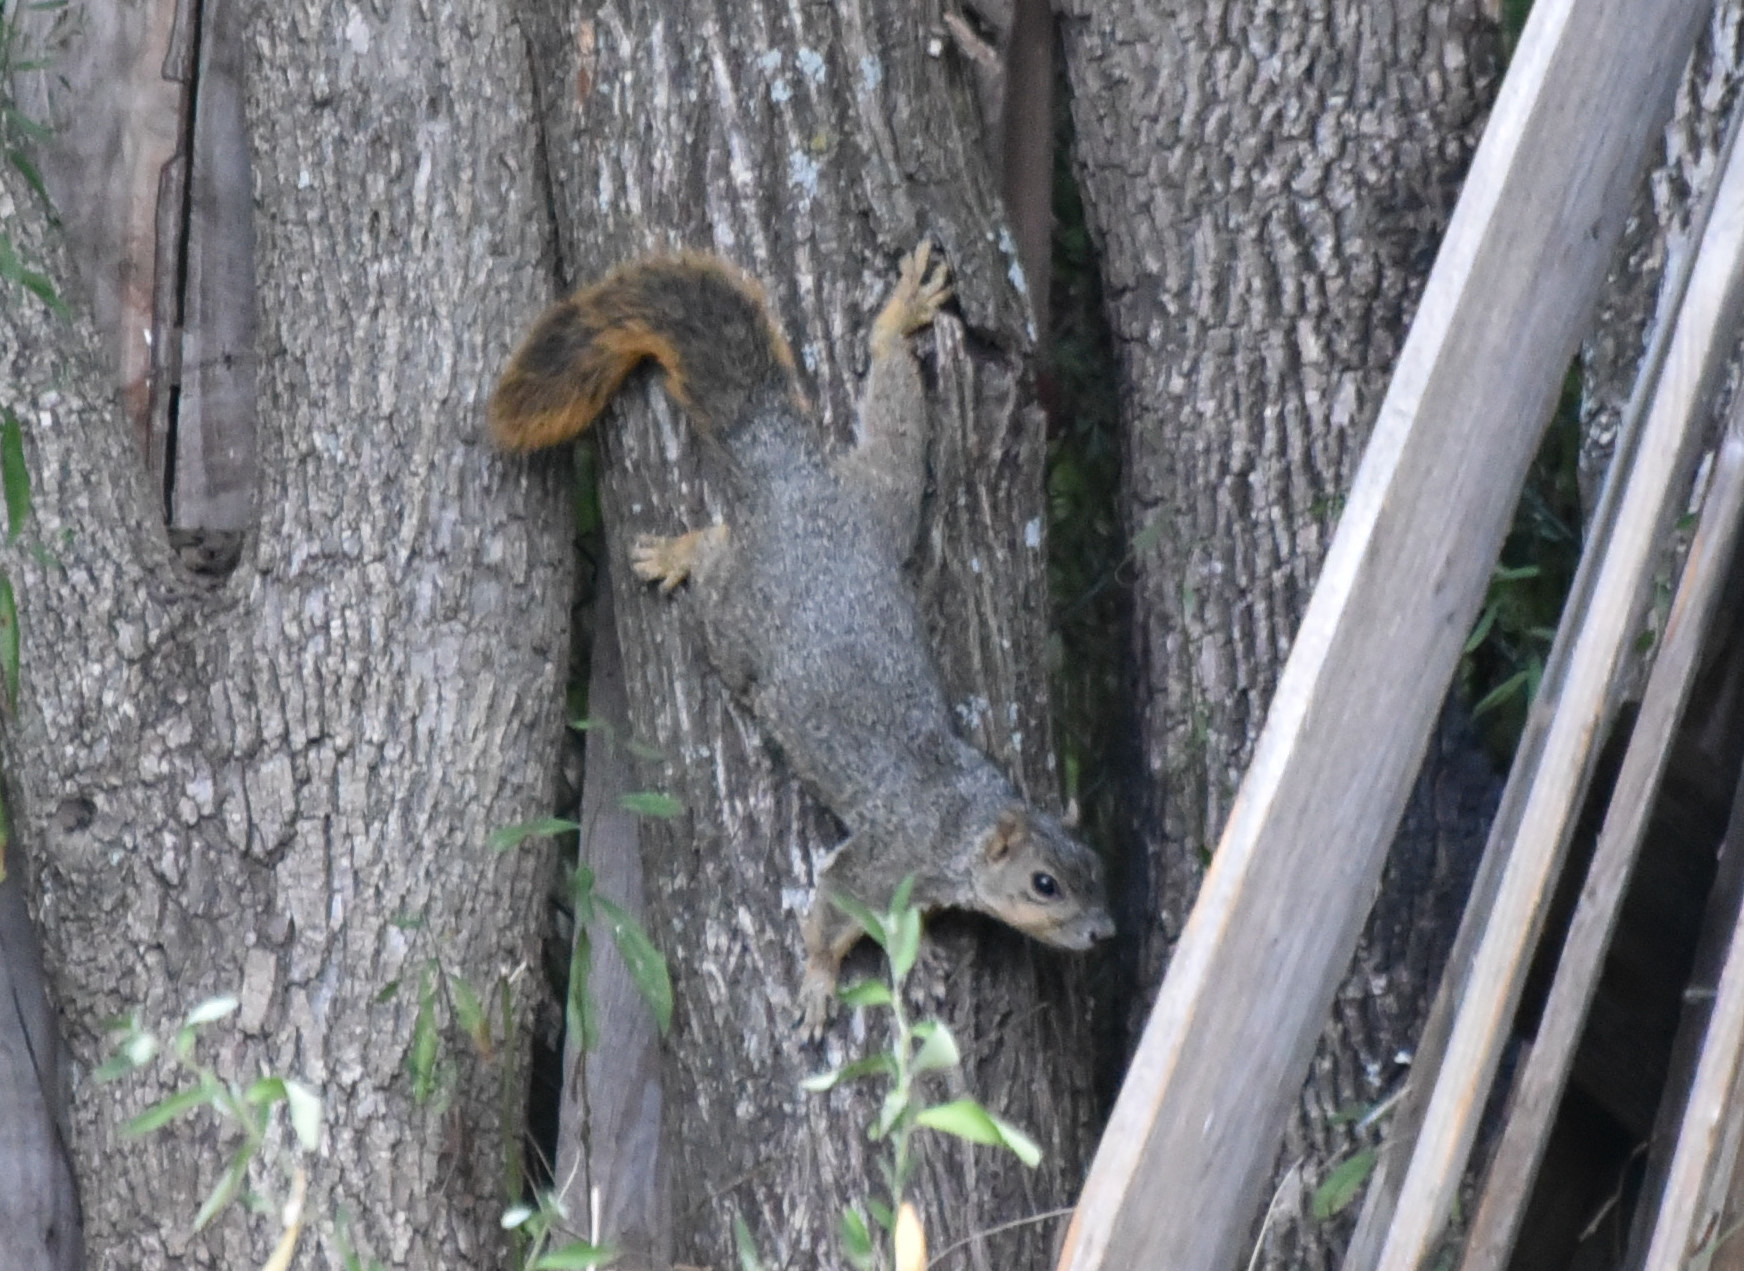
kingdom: Animalia
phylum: Chordata
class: Mammalia
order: Rodentia
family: Sciuridae
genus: Sciurus
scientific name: Sciurus niger
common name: Fox squirrel
